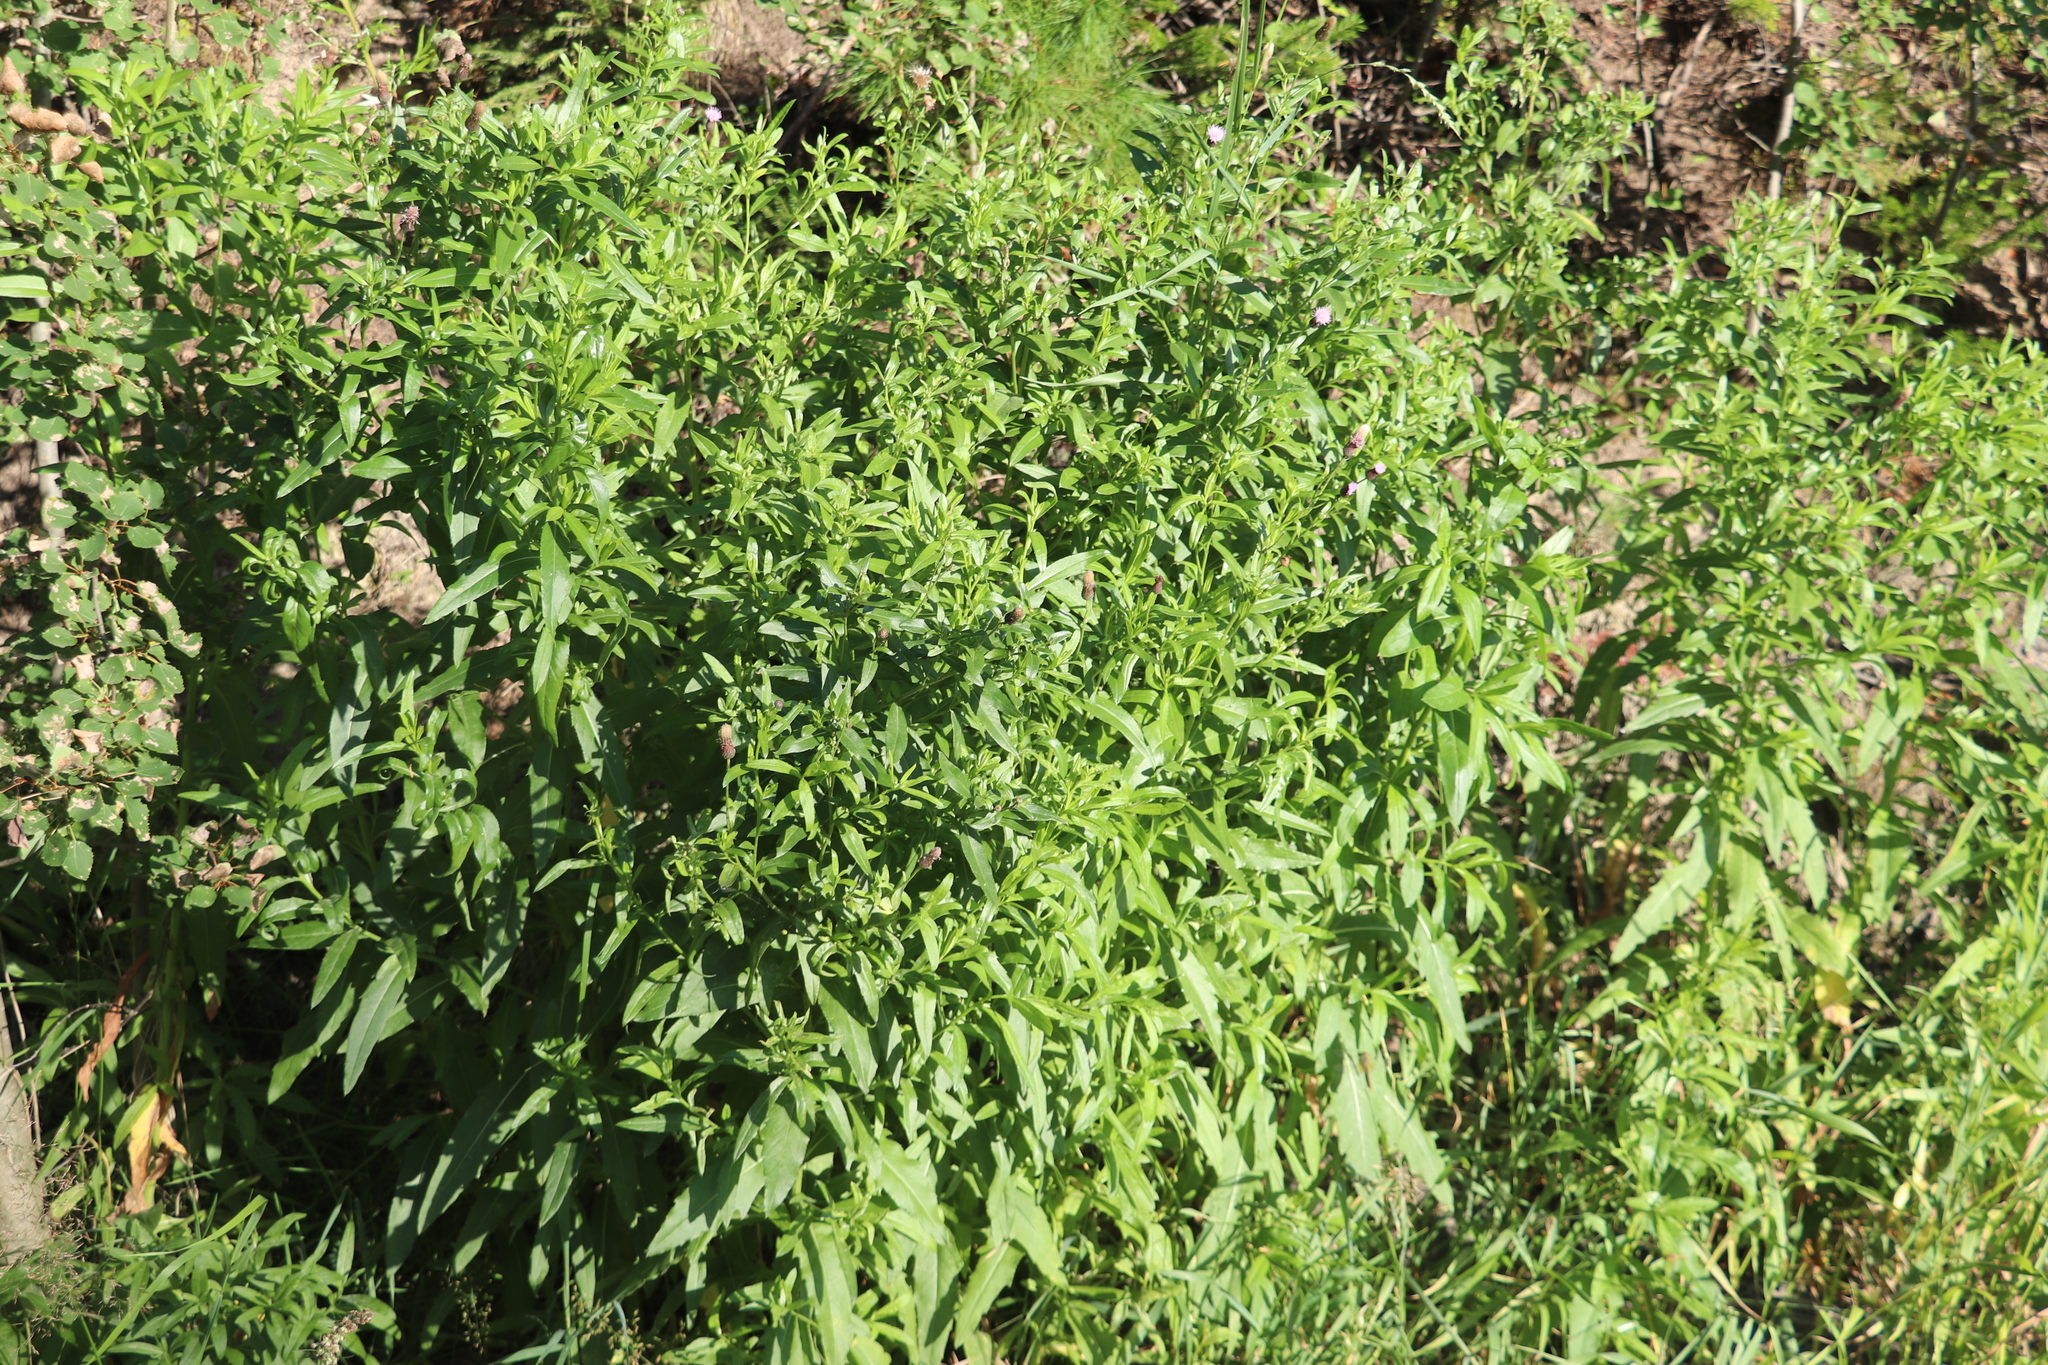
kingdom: Plantae
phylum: Tracheophyta
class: Magnoliopsida
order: Asterales
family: Asteraceae
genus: Cirsium
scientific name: Cirsium vulgare
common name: Bull thistle
